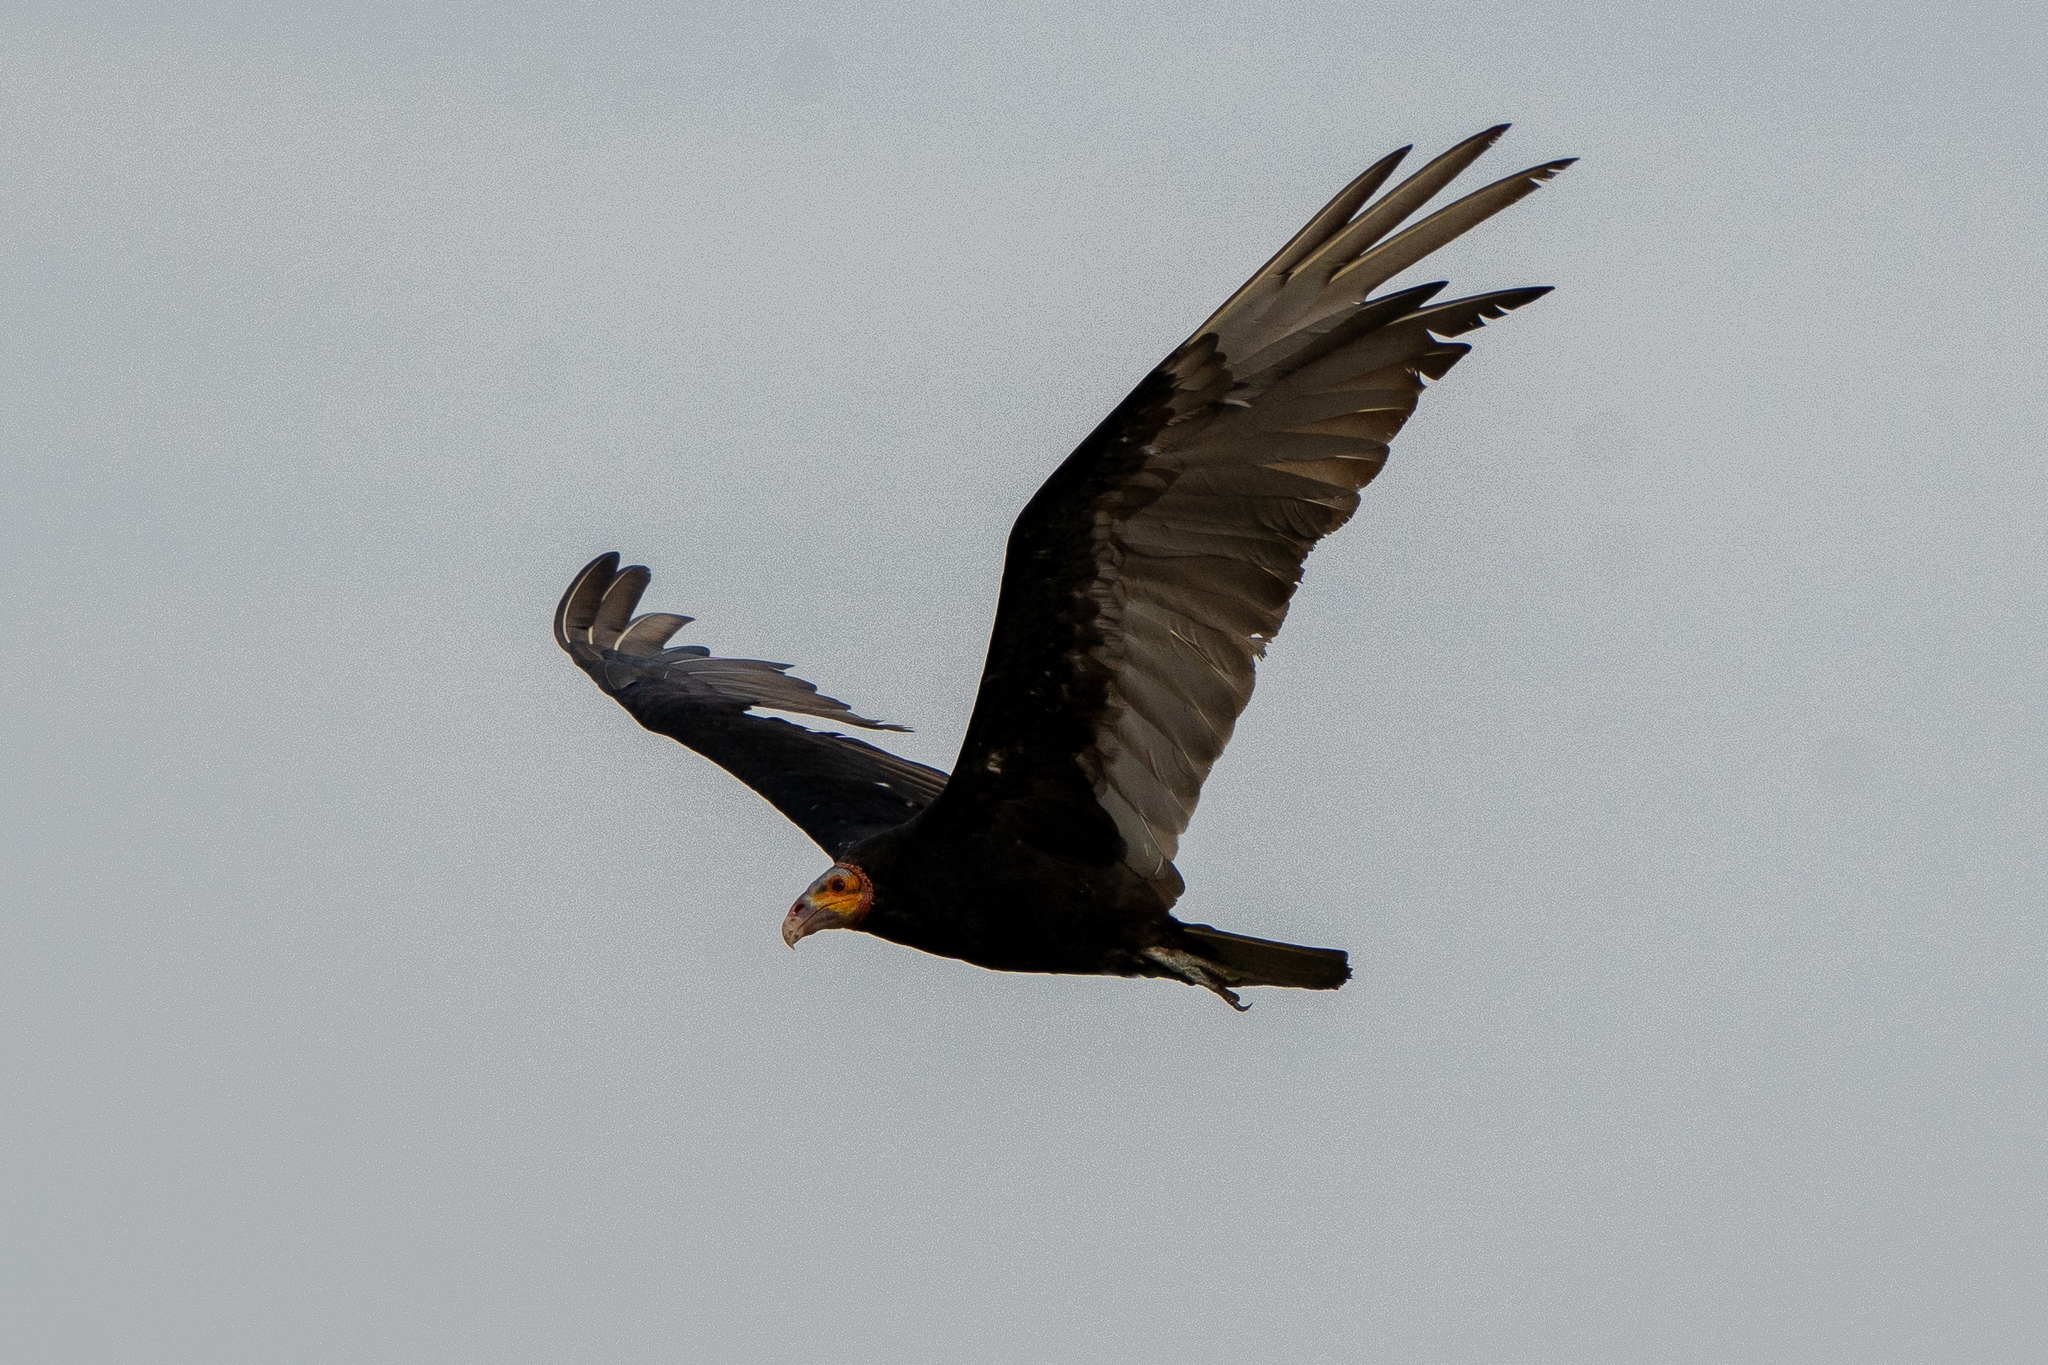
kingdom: Animalia
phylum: Chordata
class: Aves
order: Accipitriformes
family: Cathartidae
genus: Cathartes
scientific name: Cathartes burrovianus
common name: Lesser yellow-headed vulture
